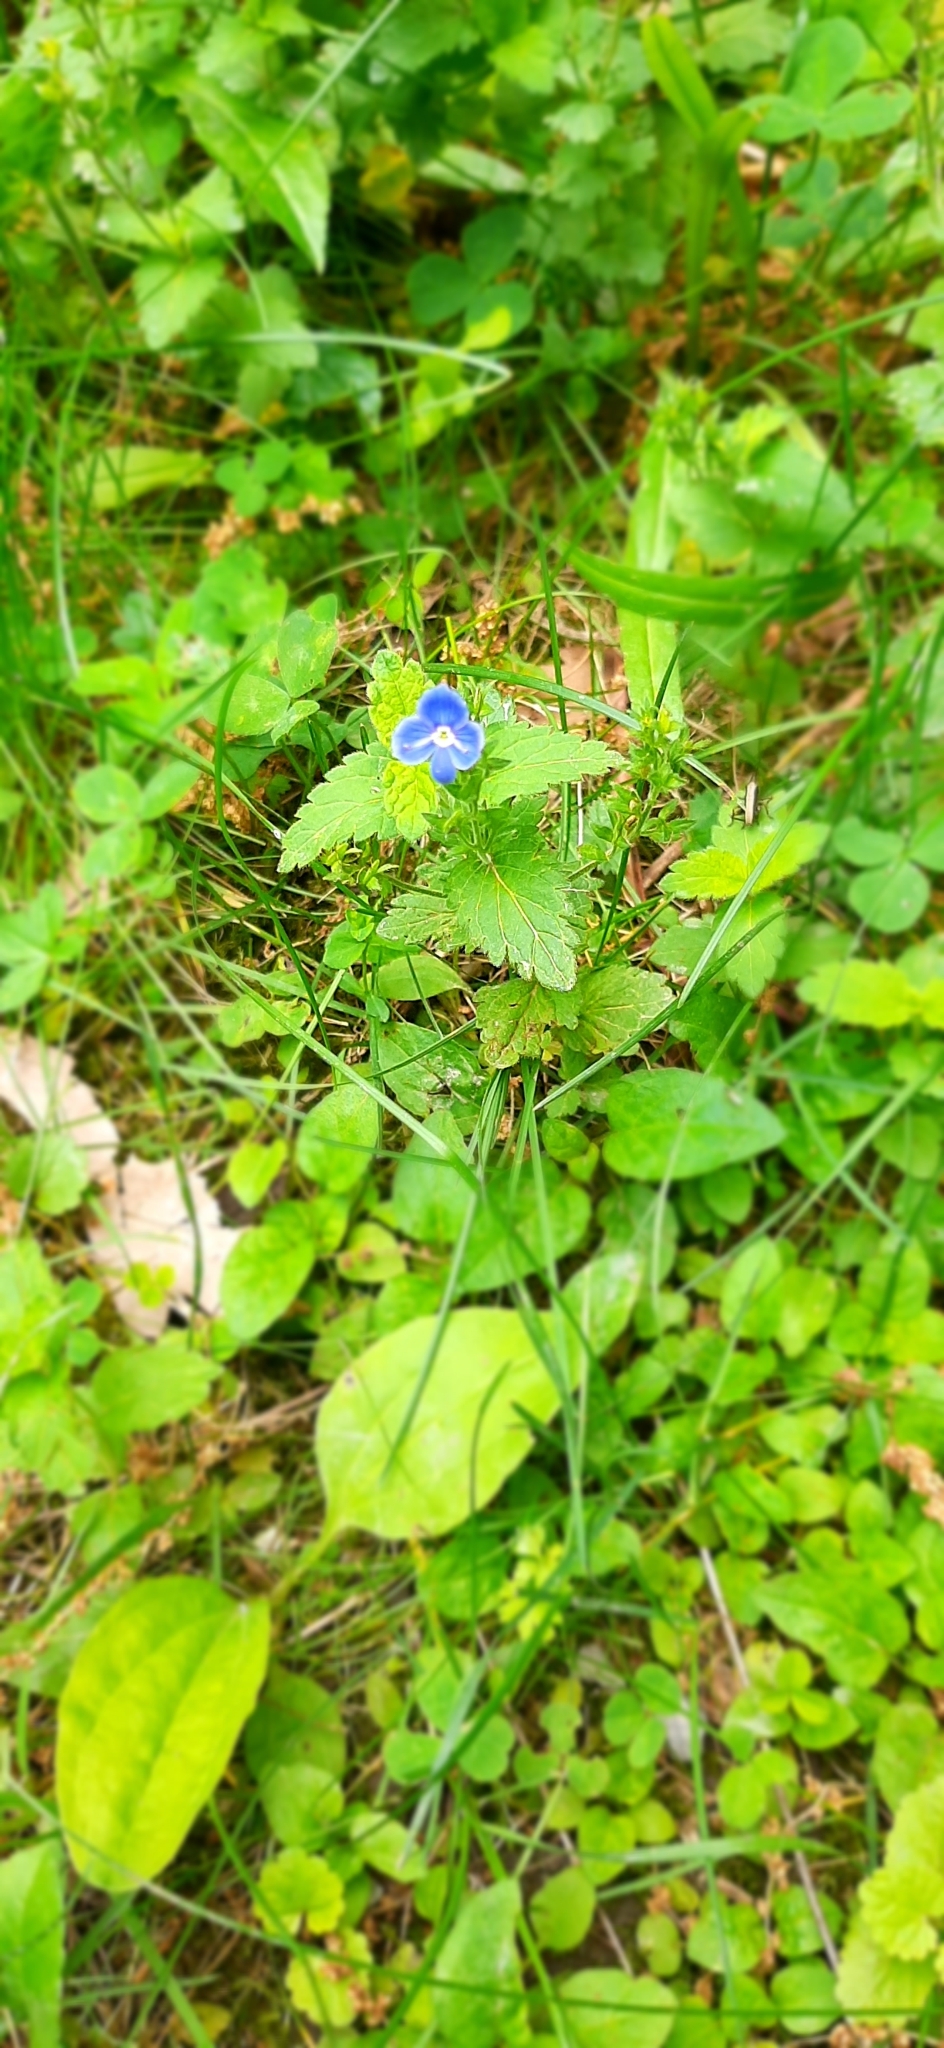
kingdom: Plantae
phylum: Tracheophyta
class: Magnoliopsida
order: Lamiales
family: Plantaginaceae
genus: Veronica
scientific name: Veronica chamaedrys
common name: Germander speedwell
